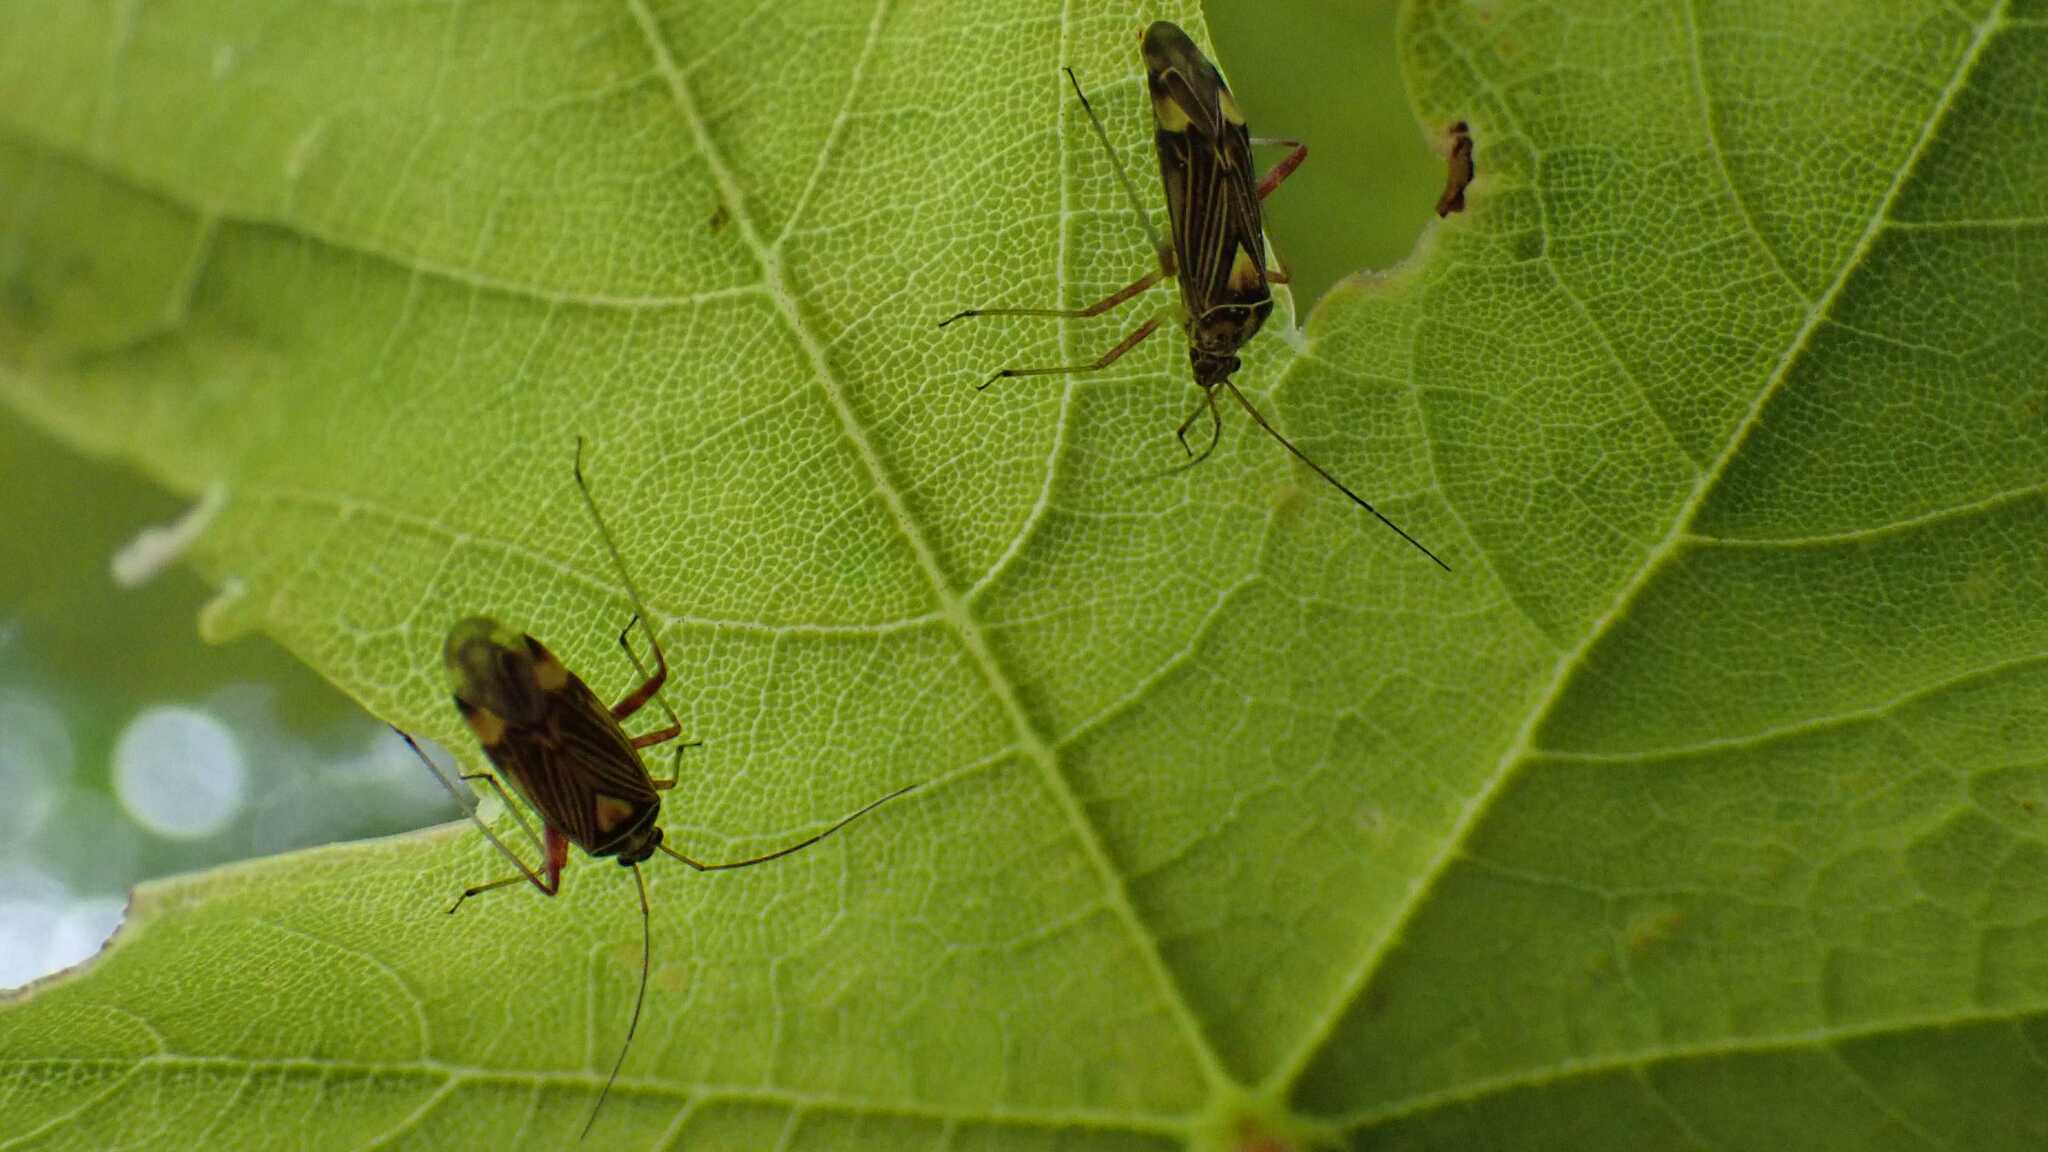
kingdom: Animalia
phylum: Arthropoda
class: Insecta
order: Hemiptera
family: Miridae
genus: Rhabdomiris
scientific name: Rhabdomiris striatellus
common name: Plant bug
